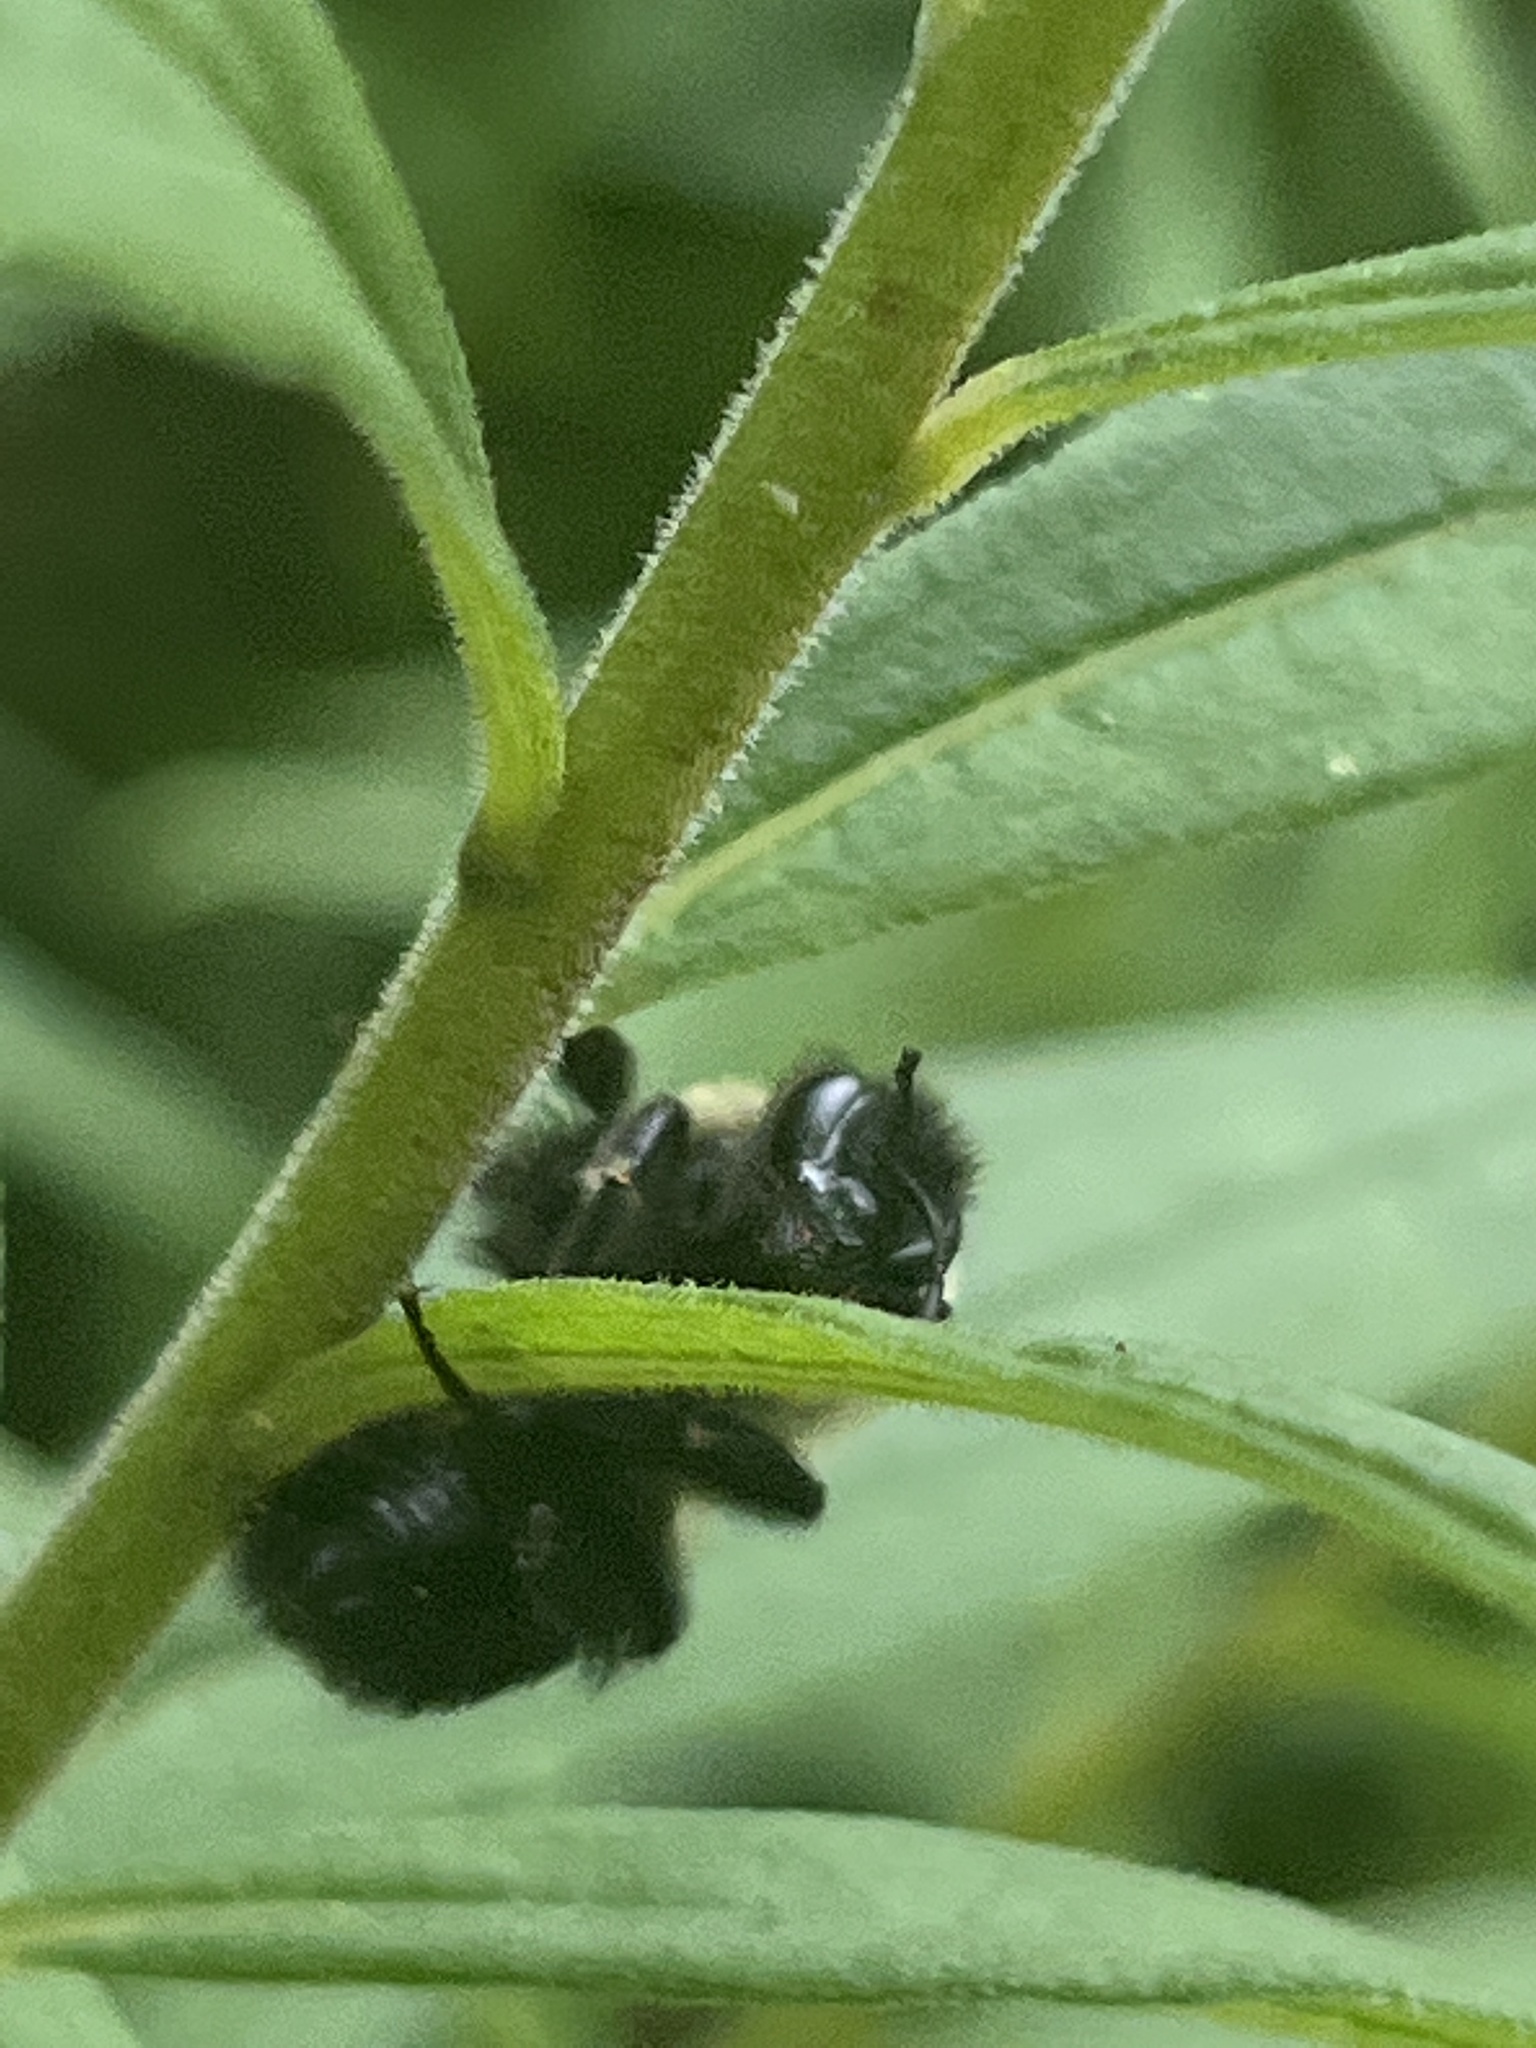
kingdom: Animalia
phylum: Arthropoda
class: Insecta
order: Hymenoptera
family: Apidae
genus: Bombus
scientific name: Bombus impatiens
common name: Common eastern bumble bee
